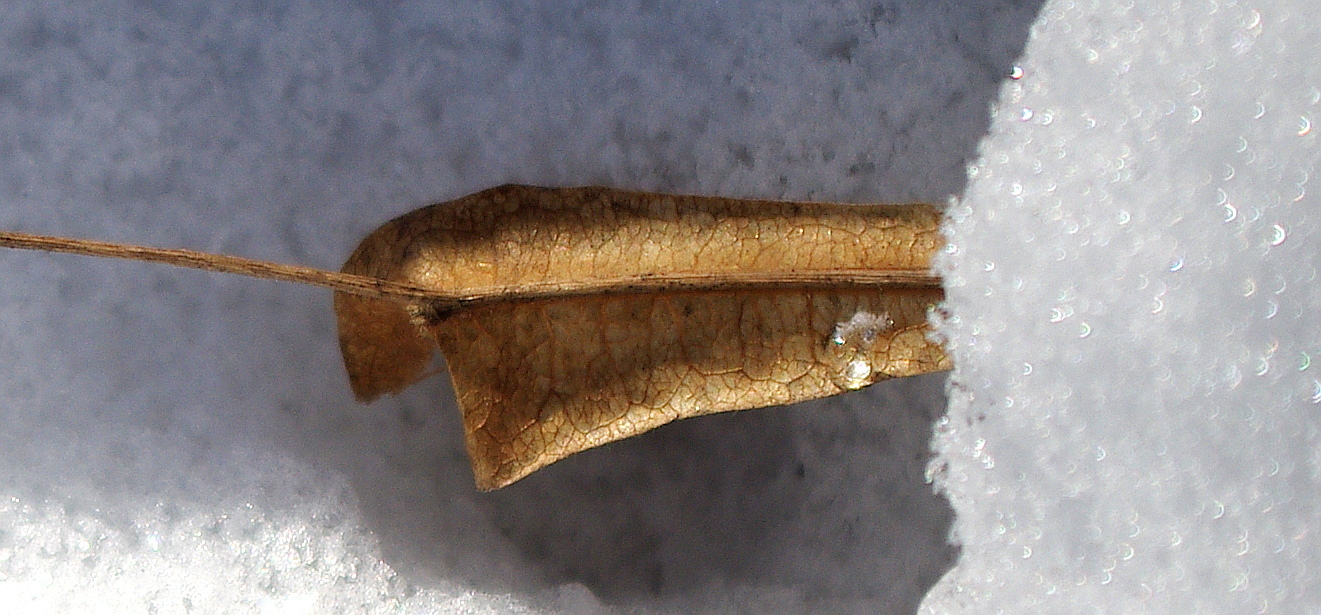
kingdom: Plantae
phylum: Tracheophyta
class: Magnoliopsida
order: Malvales
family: Malvaceae
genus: Tilia
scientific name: Tilia platyphyllos
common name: Large-leaved lime
